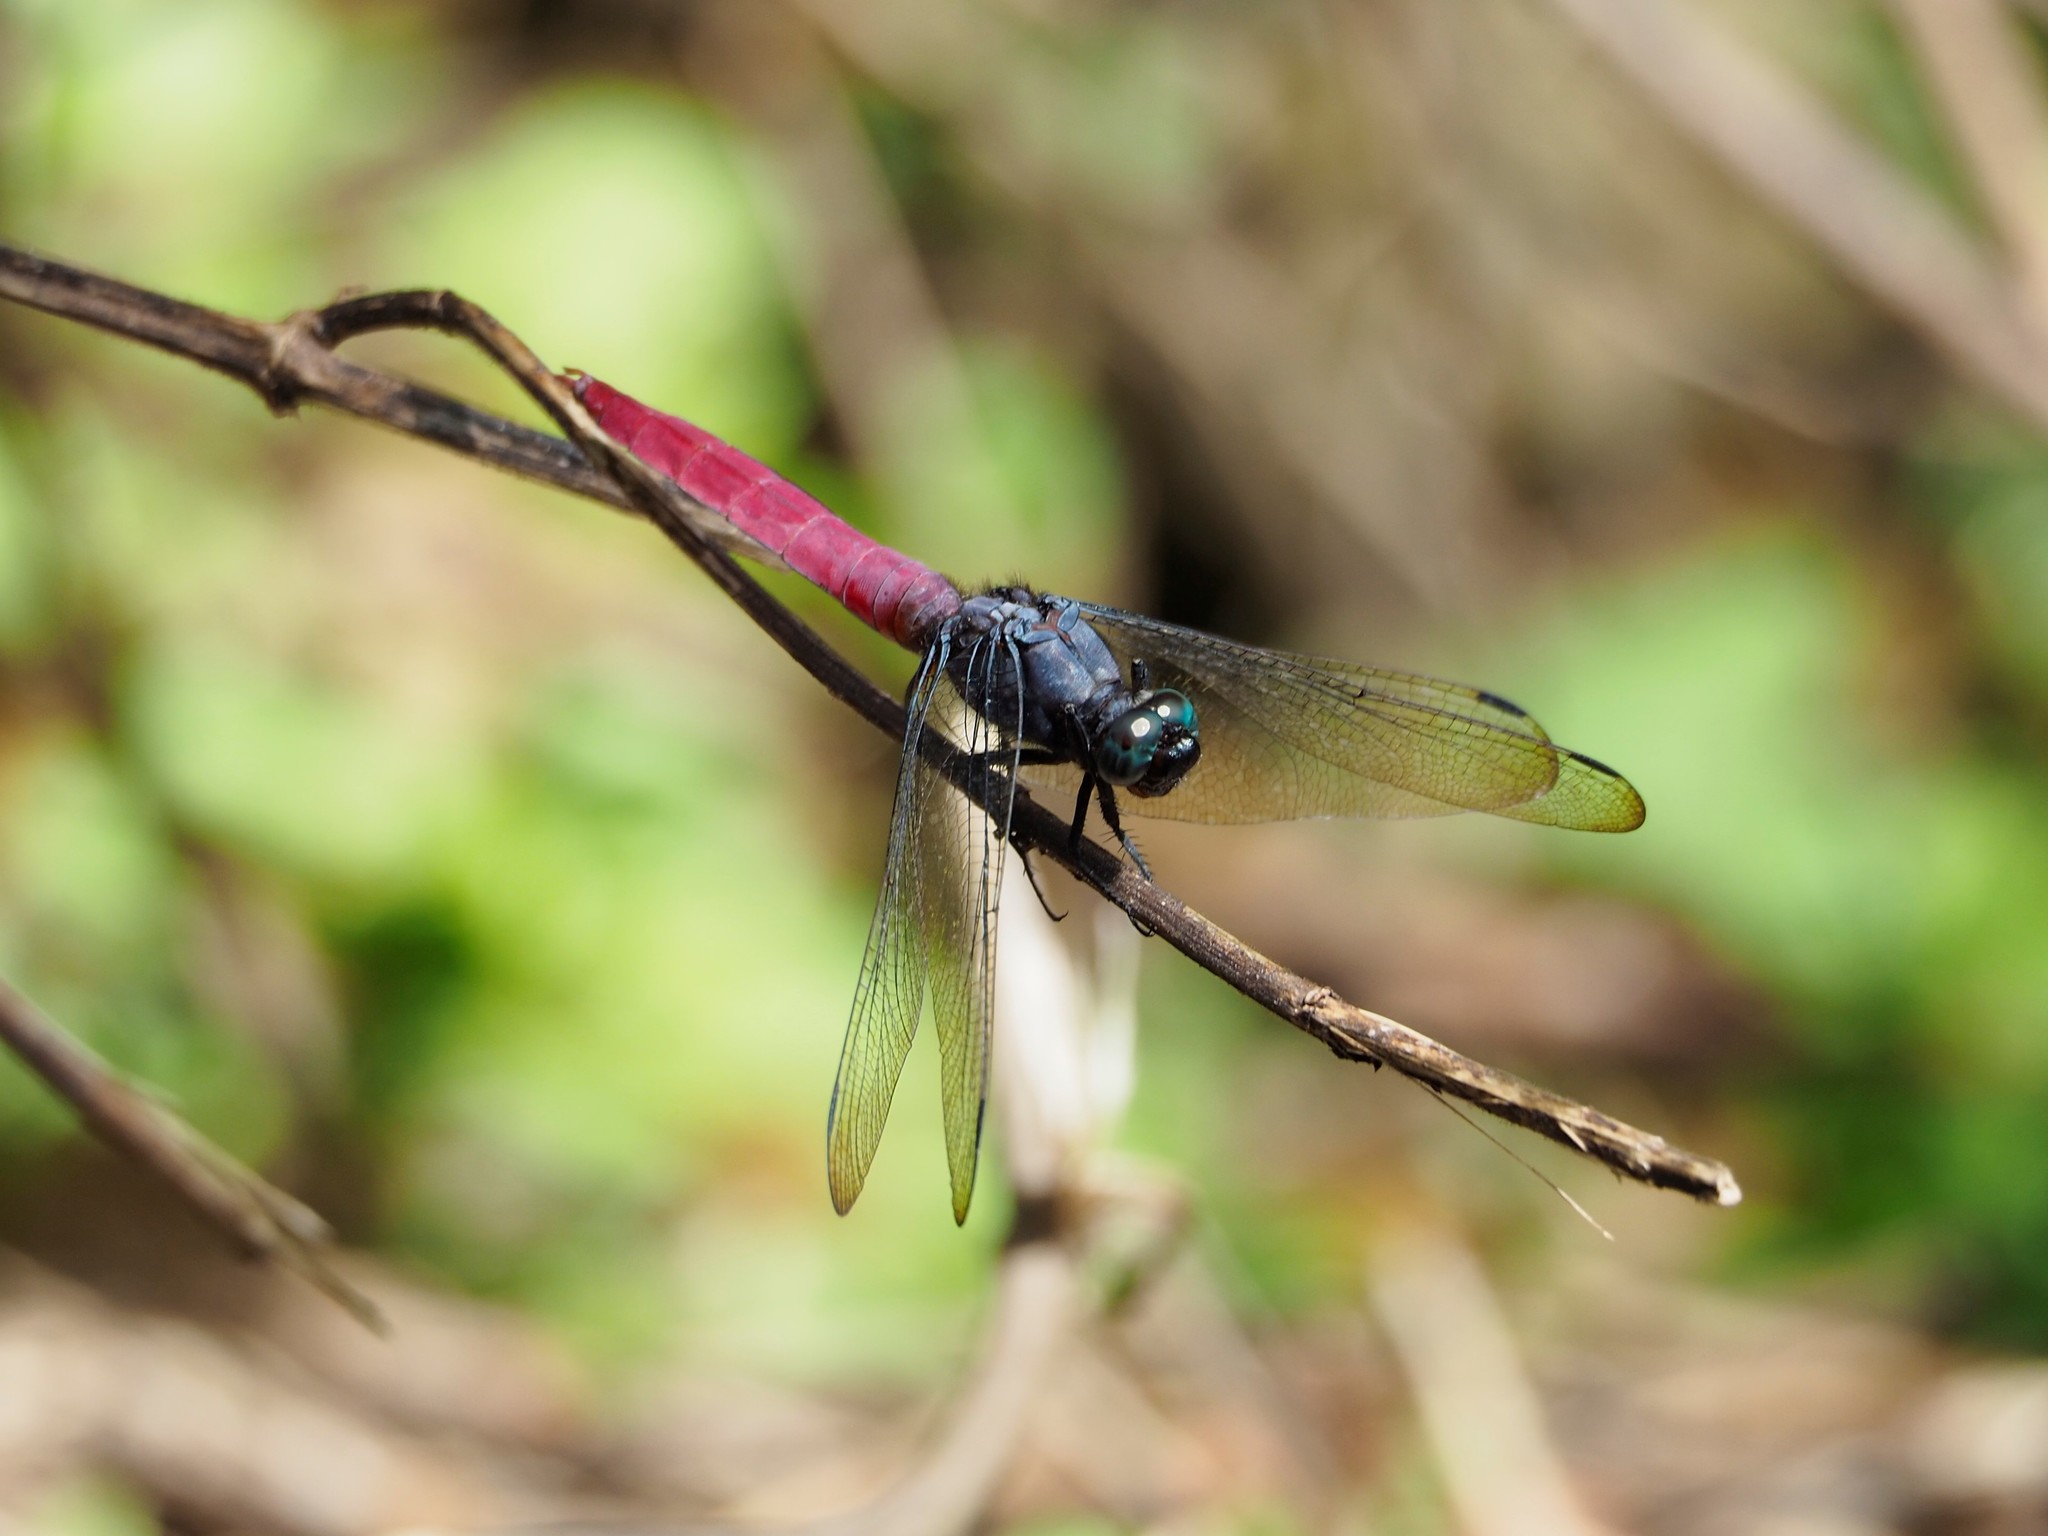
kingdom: Animalia
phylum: Arthropoda
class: Insecta
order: Odonata
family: Libellulidae
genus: Orthetrum
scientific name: Orthetrum pruinosum
